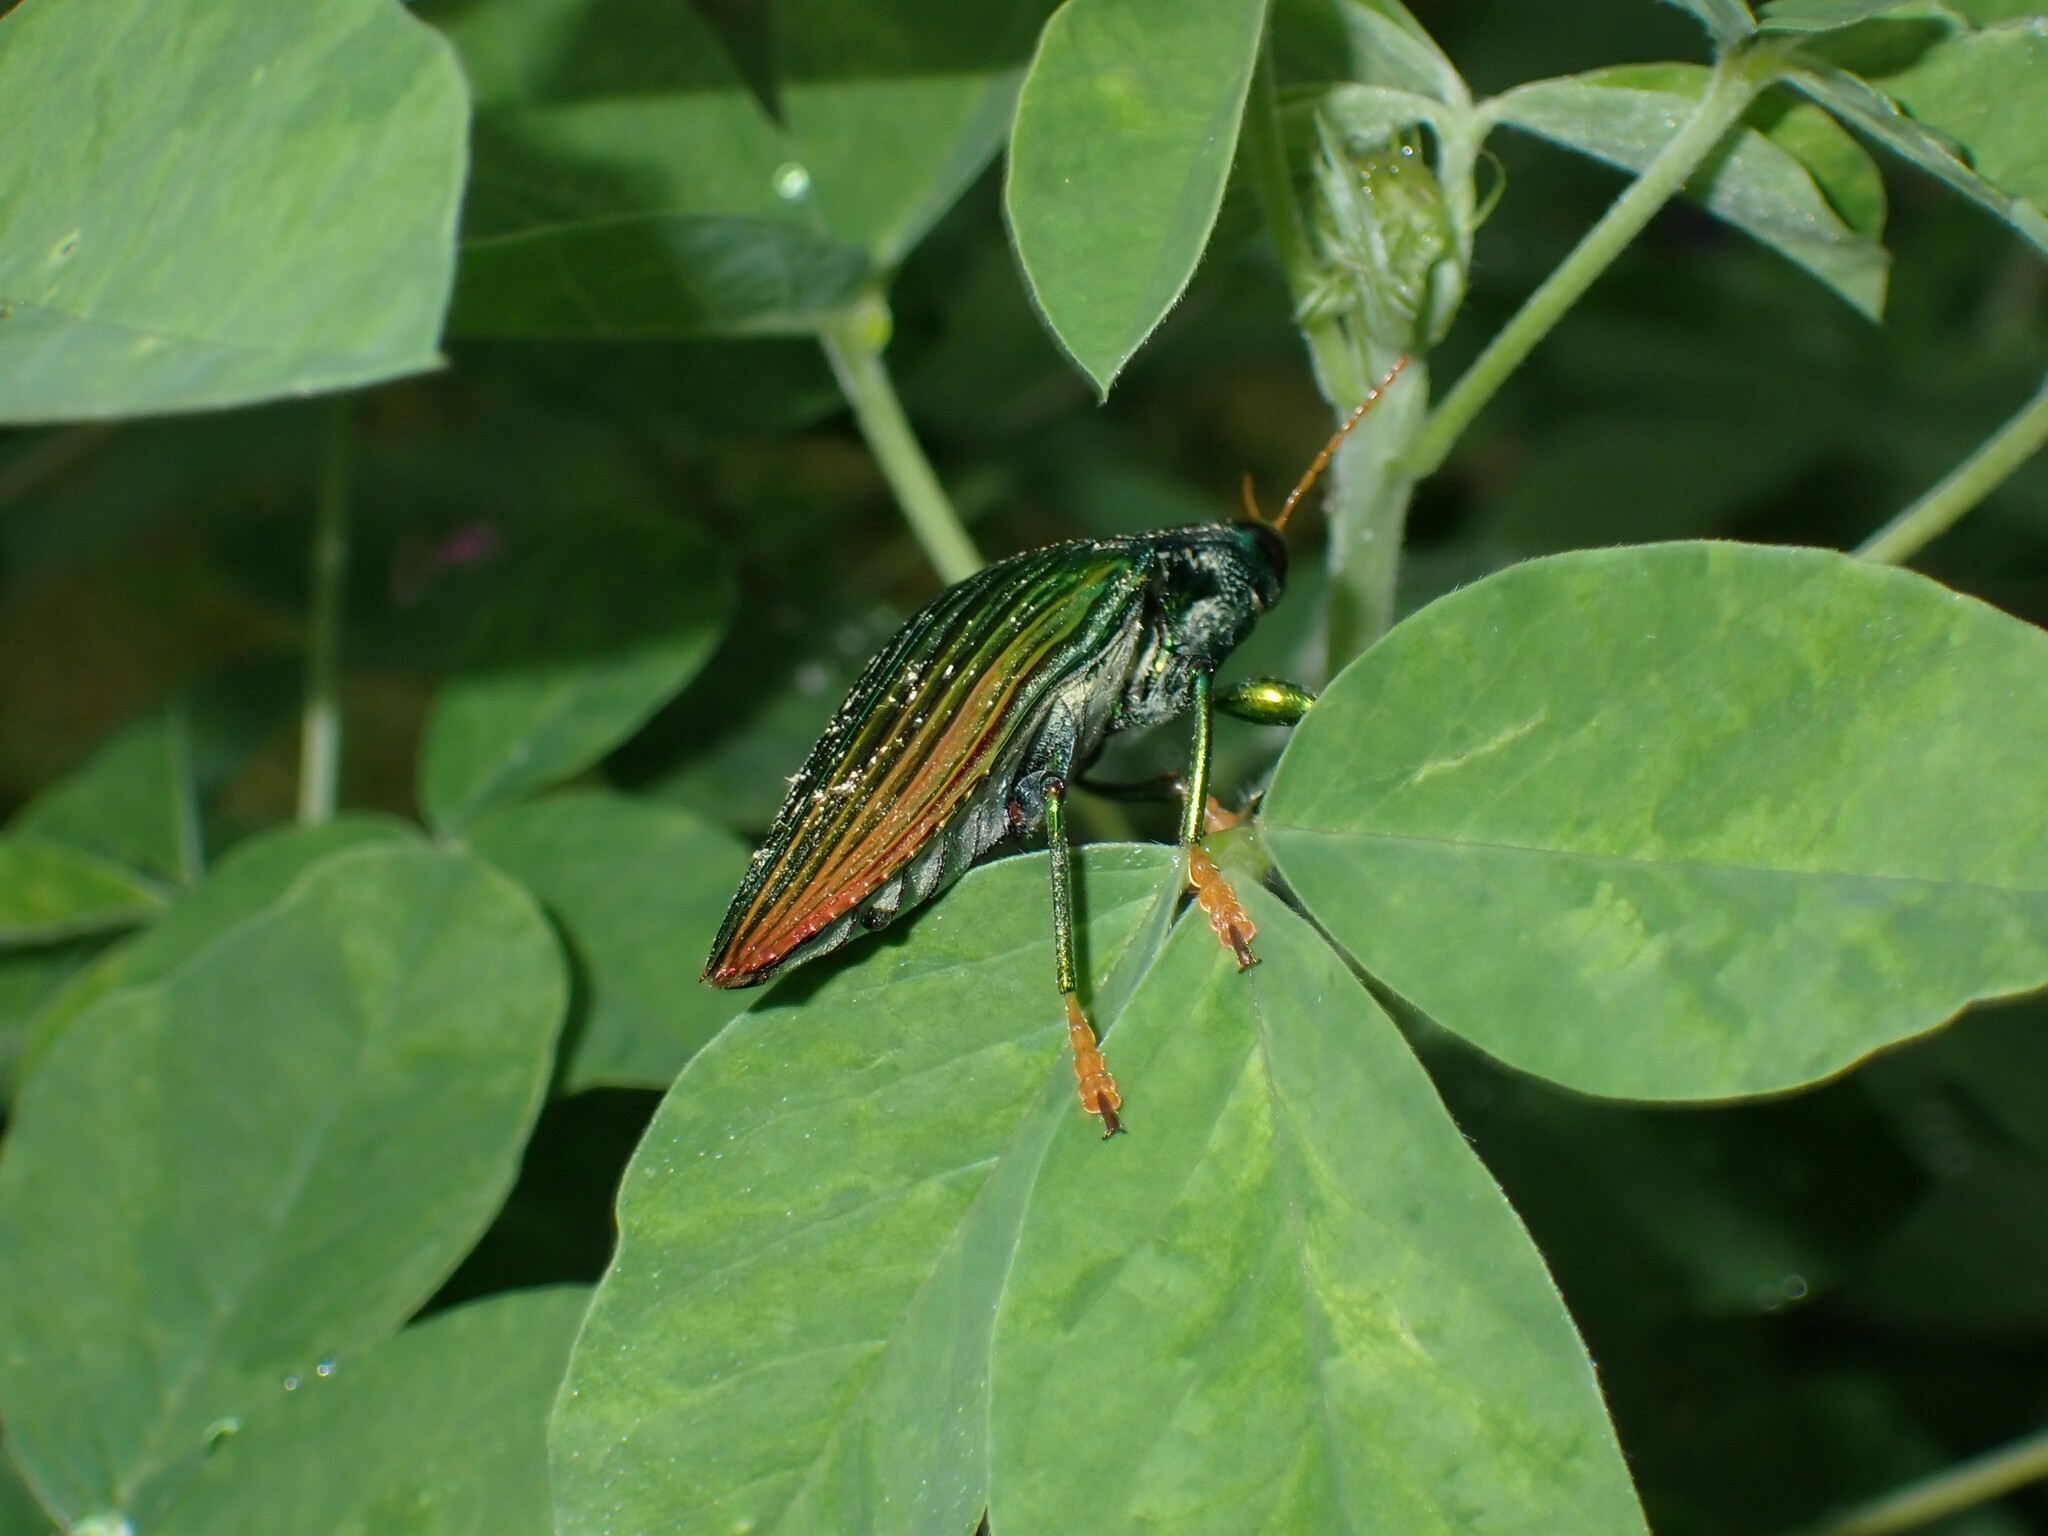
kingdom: Animalia
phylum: Arthropoda
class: Insecta
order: Coleoptera
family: Buprestidae
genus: Paracupta
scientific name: Paracupta hebridana
